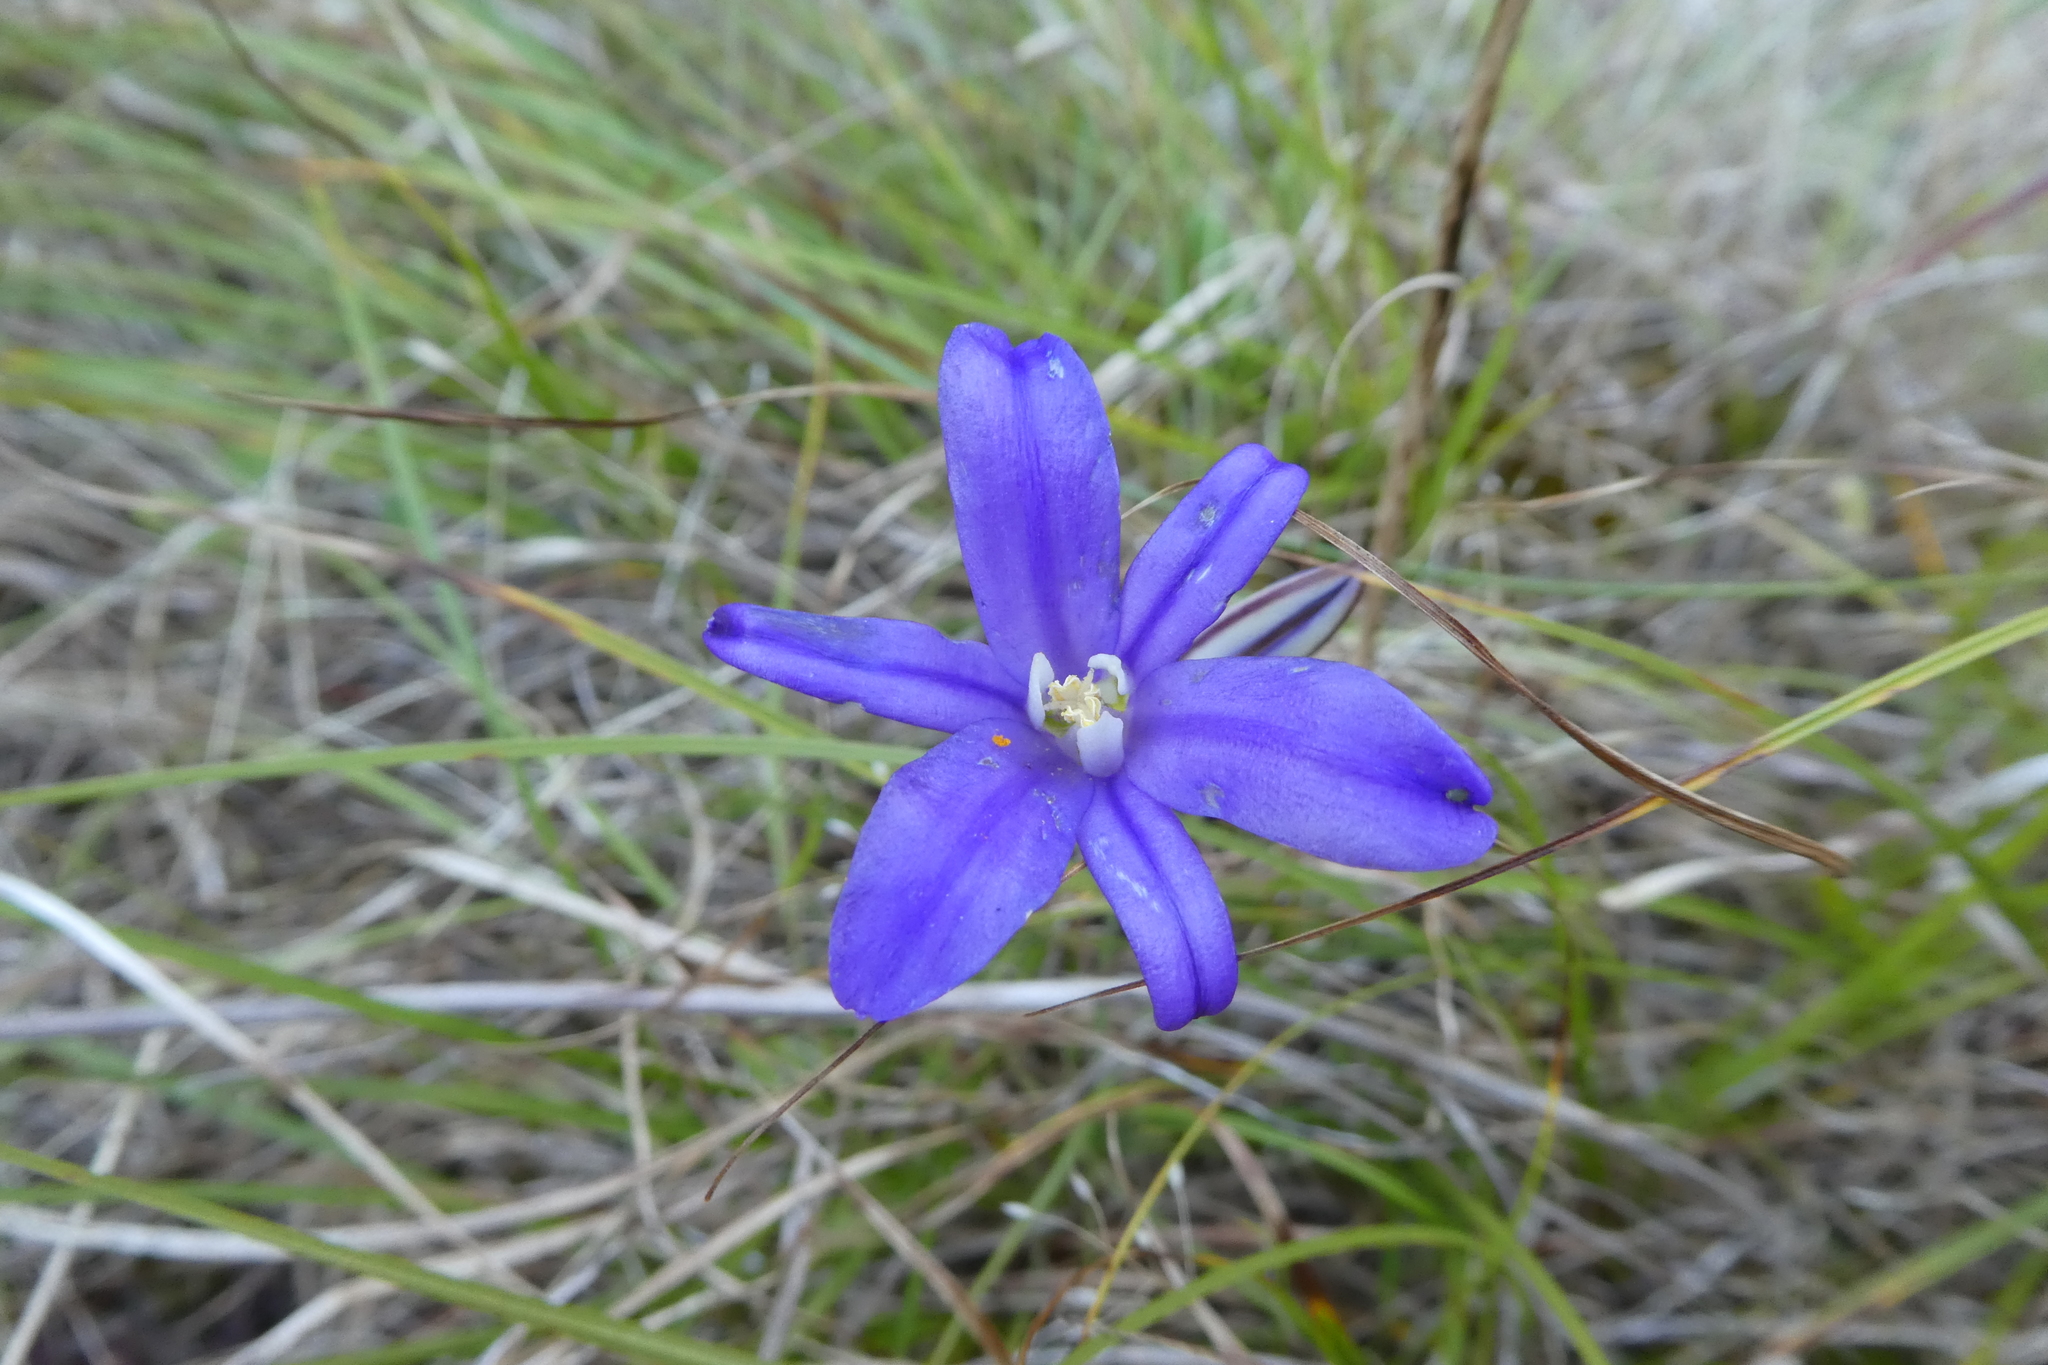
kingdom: Plantae
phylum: Tracheophyta
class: Liliopsida
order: Asparagales
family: Asparagaceae
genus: Brodiaea
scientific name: Brodiaea coronaria
